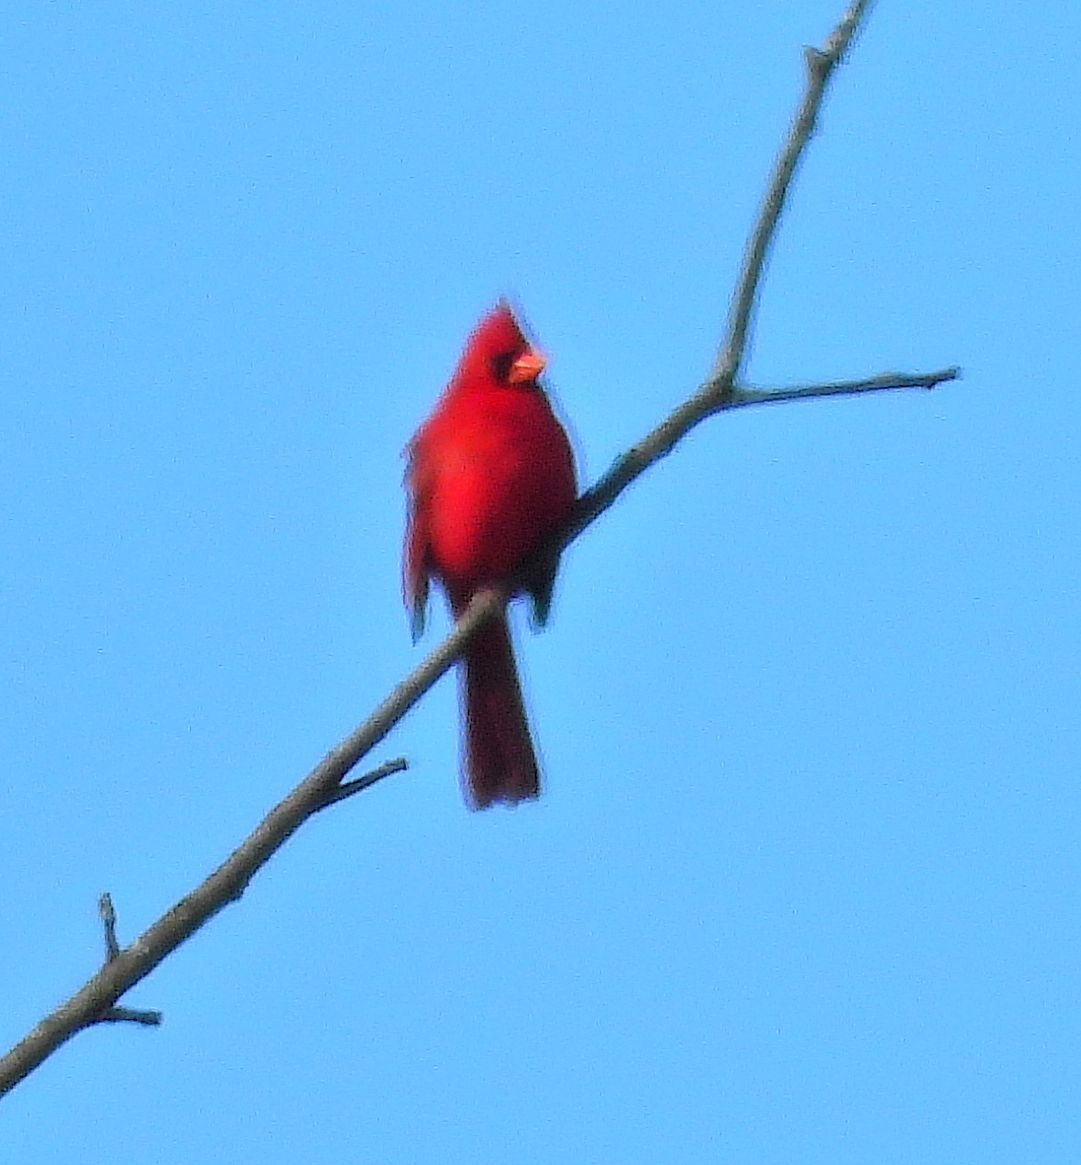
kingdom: Animalia
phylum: Chordata
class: Aves
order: Passeriformes
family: Cardinalidae
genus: Cardinalis
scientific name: Cardinalis cardinalis
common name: Northern cardinal
